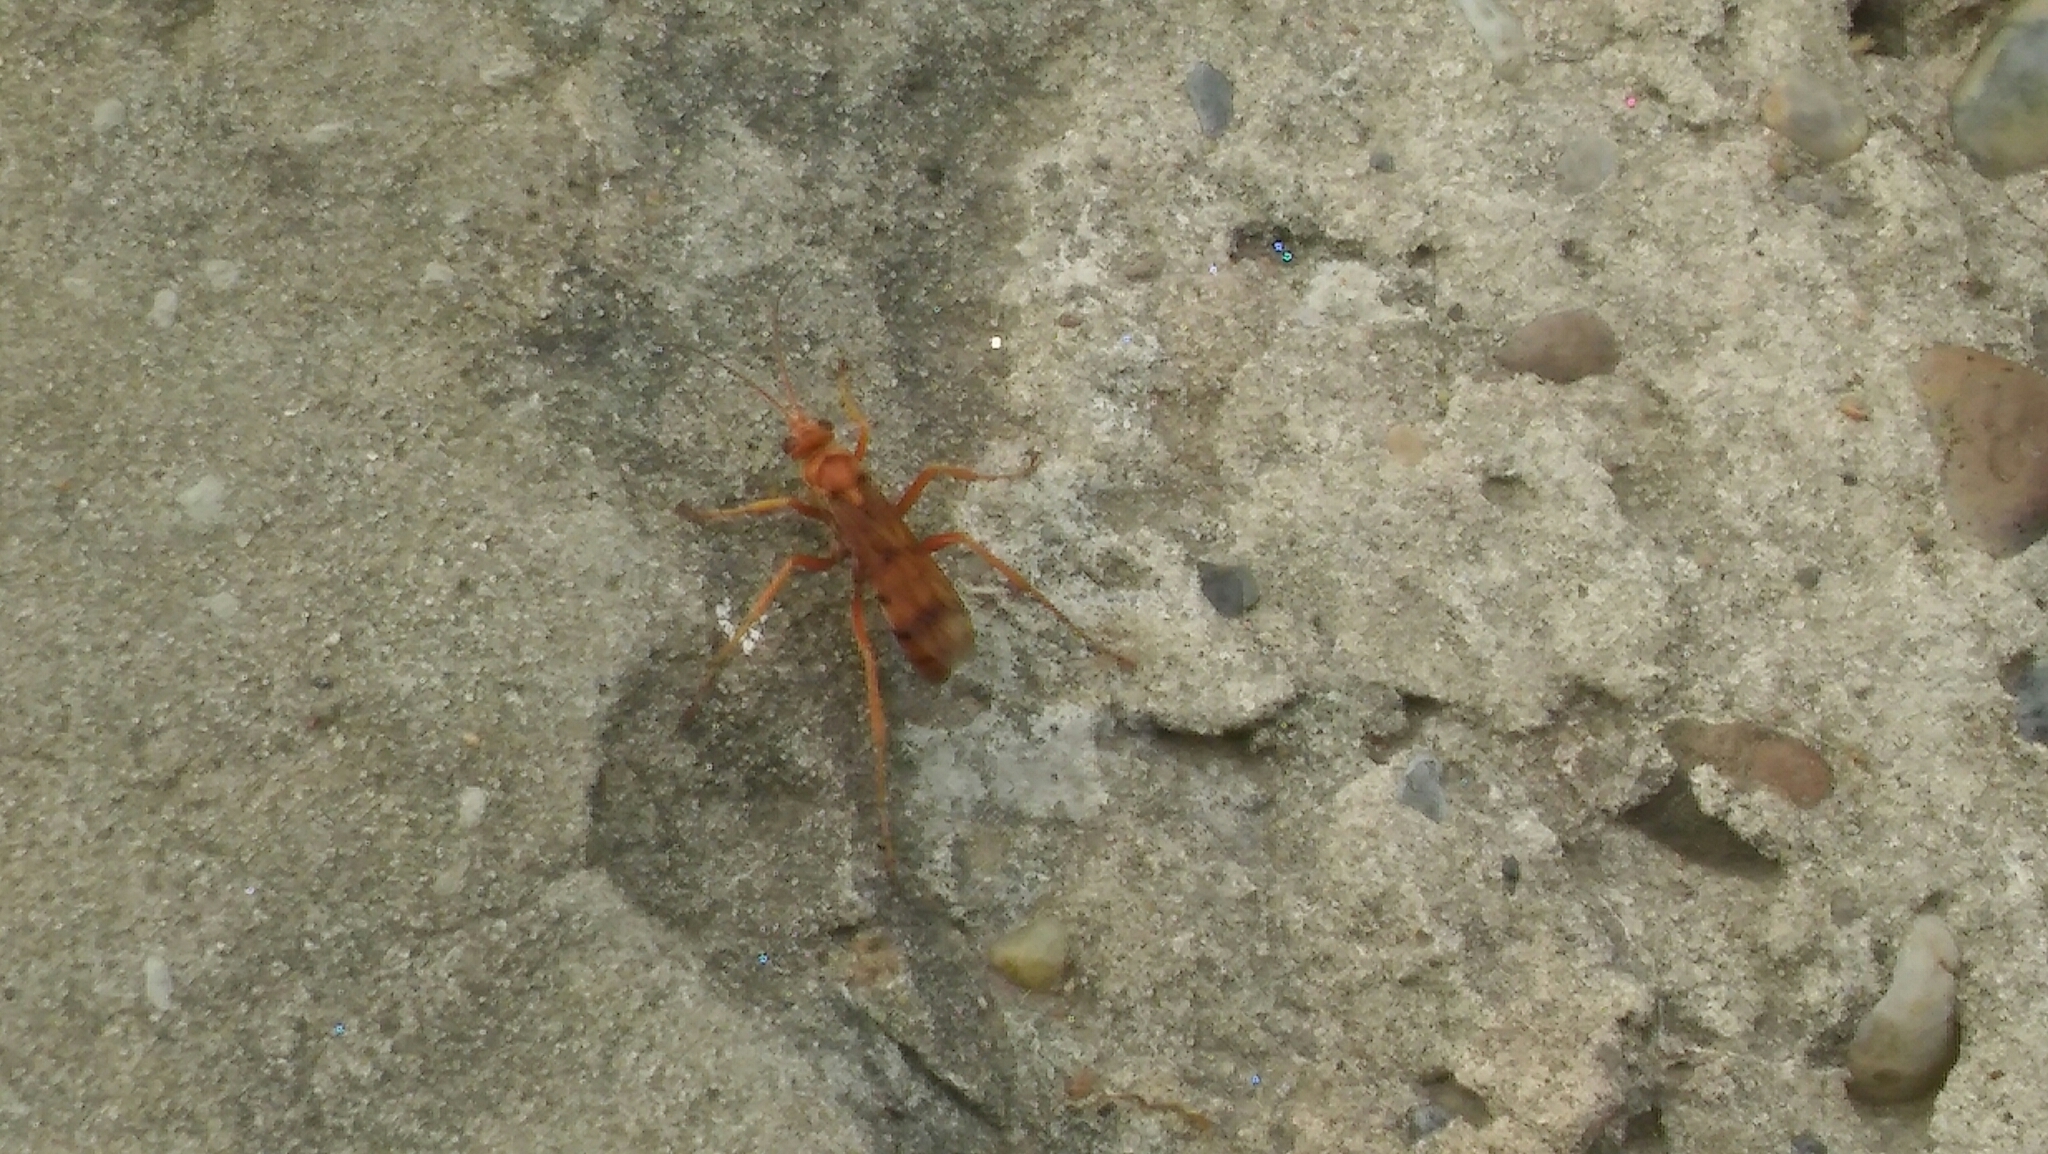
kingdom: Animalia
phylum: Arthropoda
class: Insecta
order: Hymenoptera
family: Pompilidae
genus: Tachypompilus
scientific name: Tachypompilus mendozae
